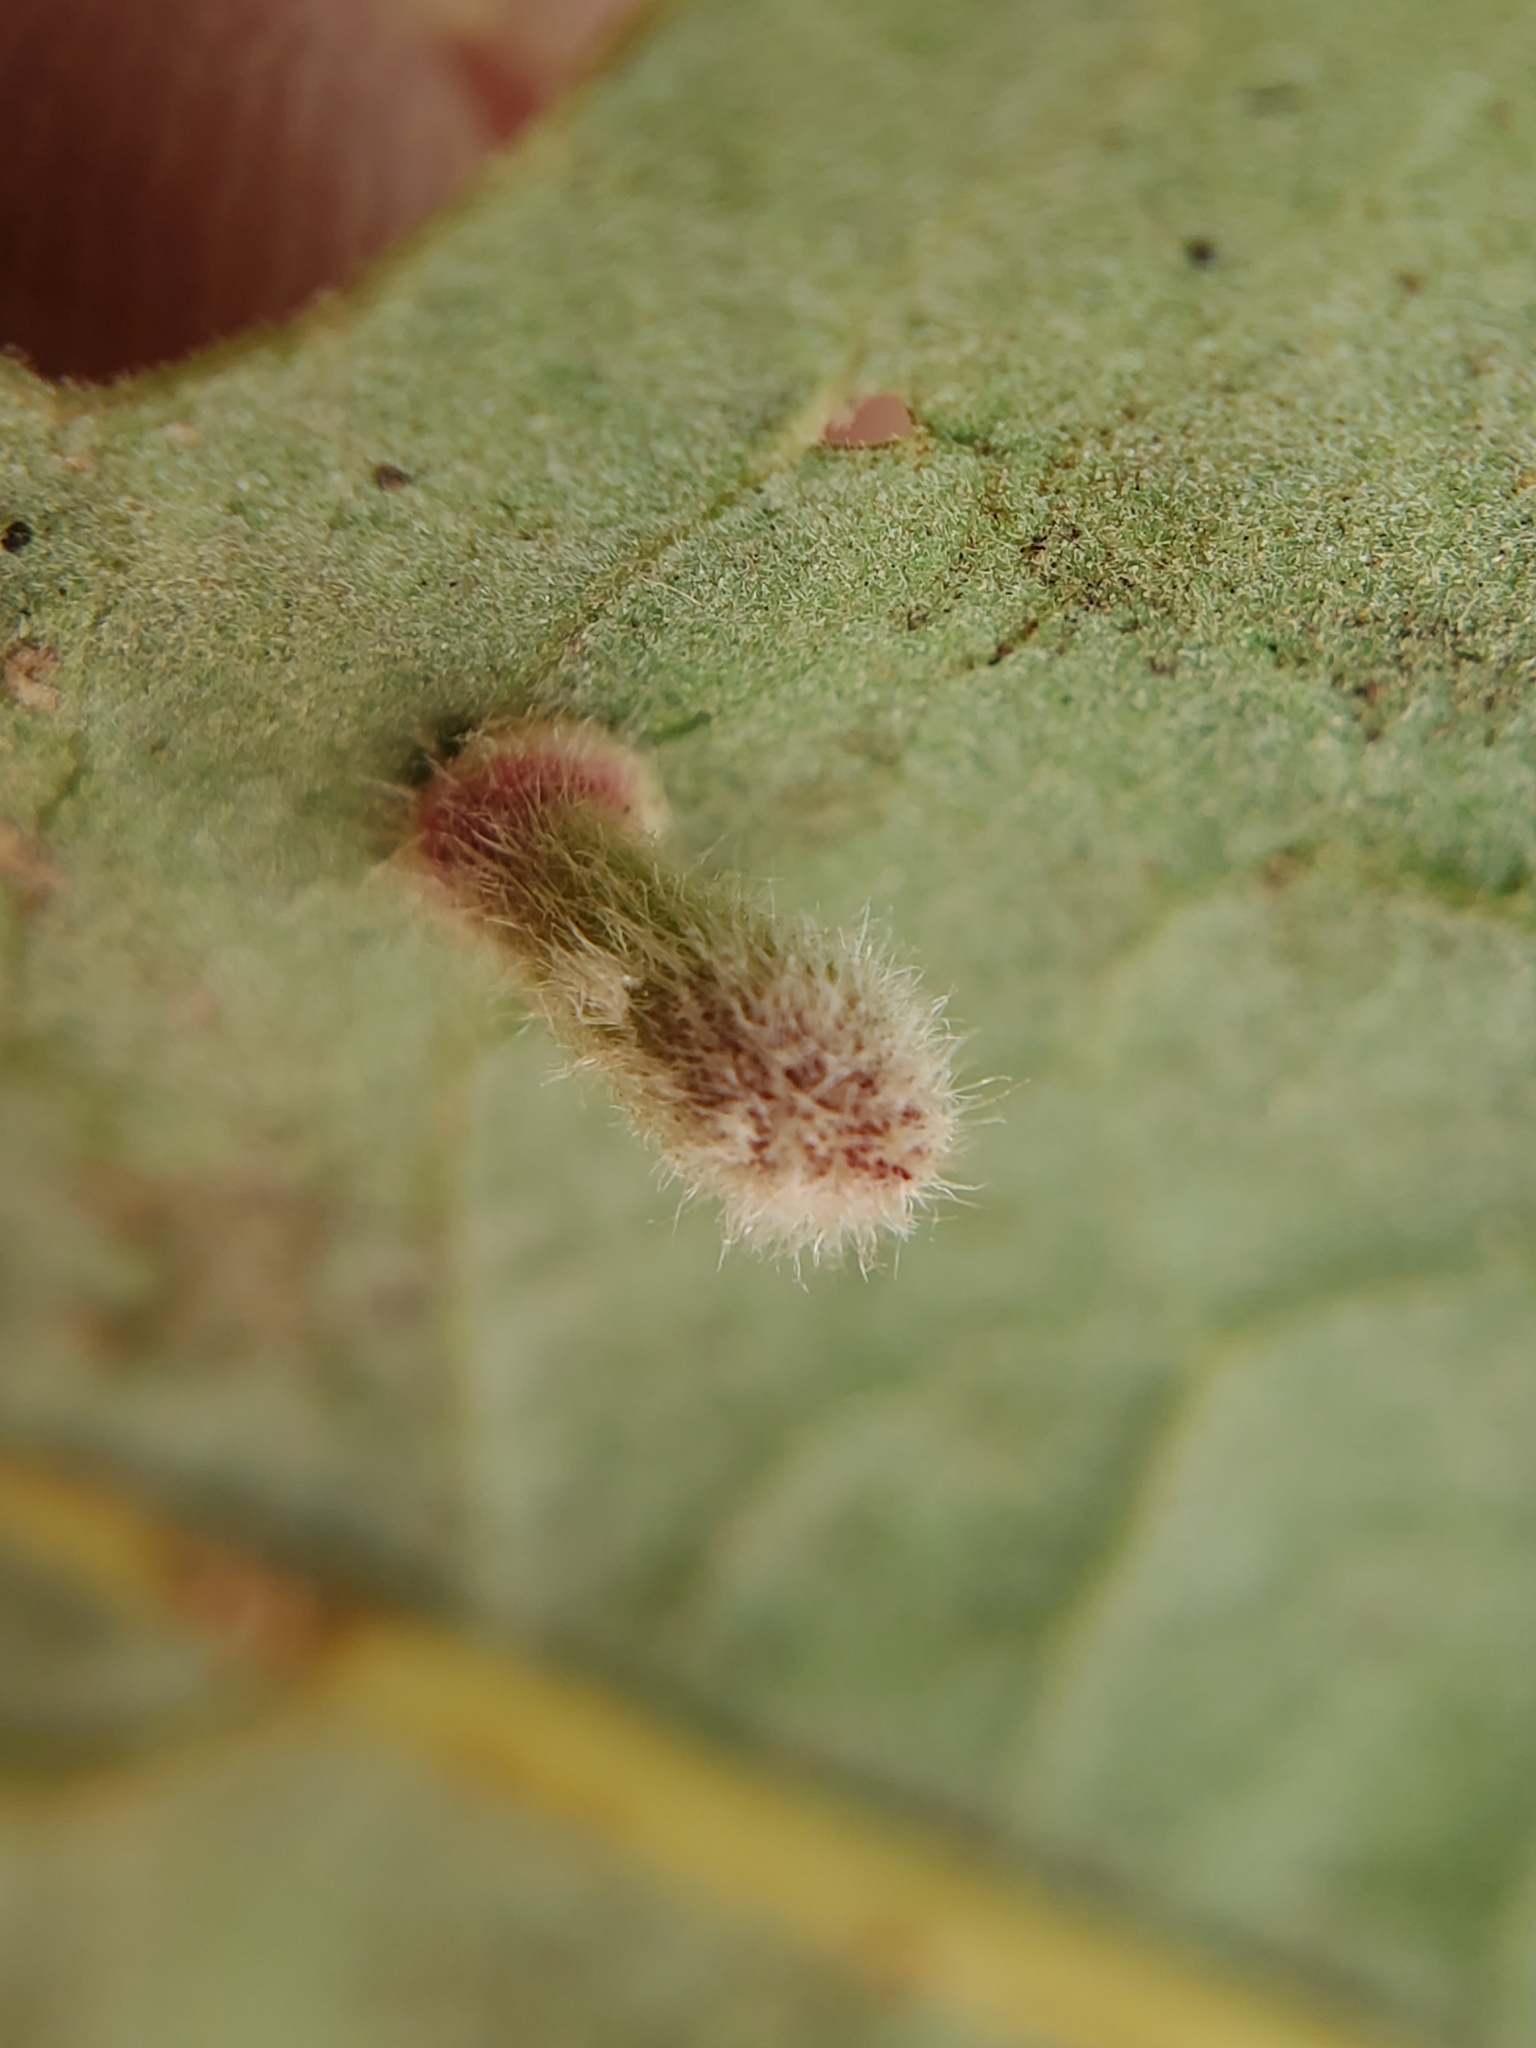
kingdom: Animalia
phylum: Arthropoda
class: Insecta
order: Hymenoptera
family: Cynipidae
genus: Atrusca
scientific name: Atrusca
